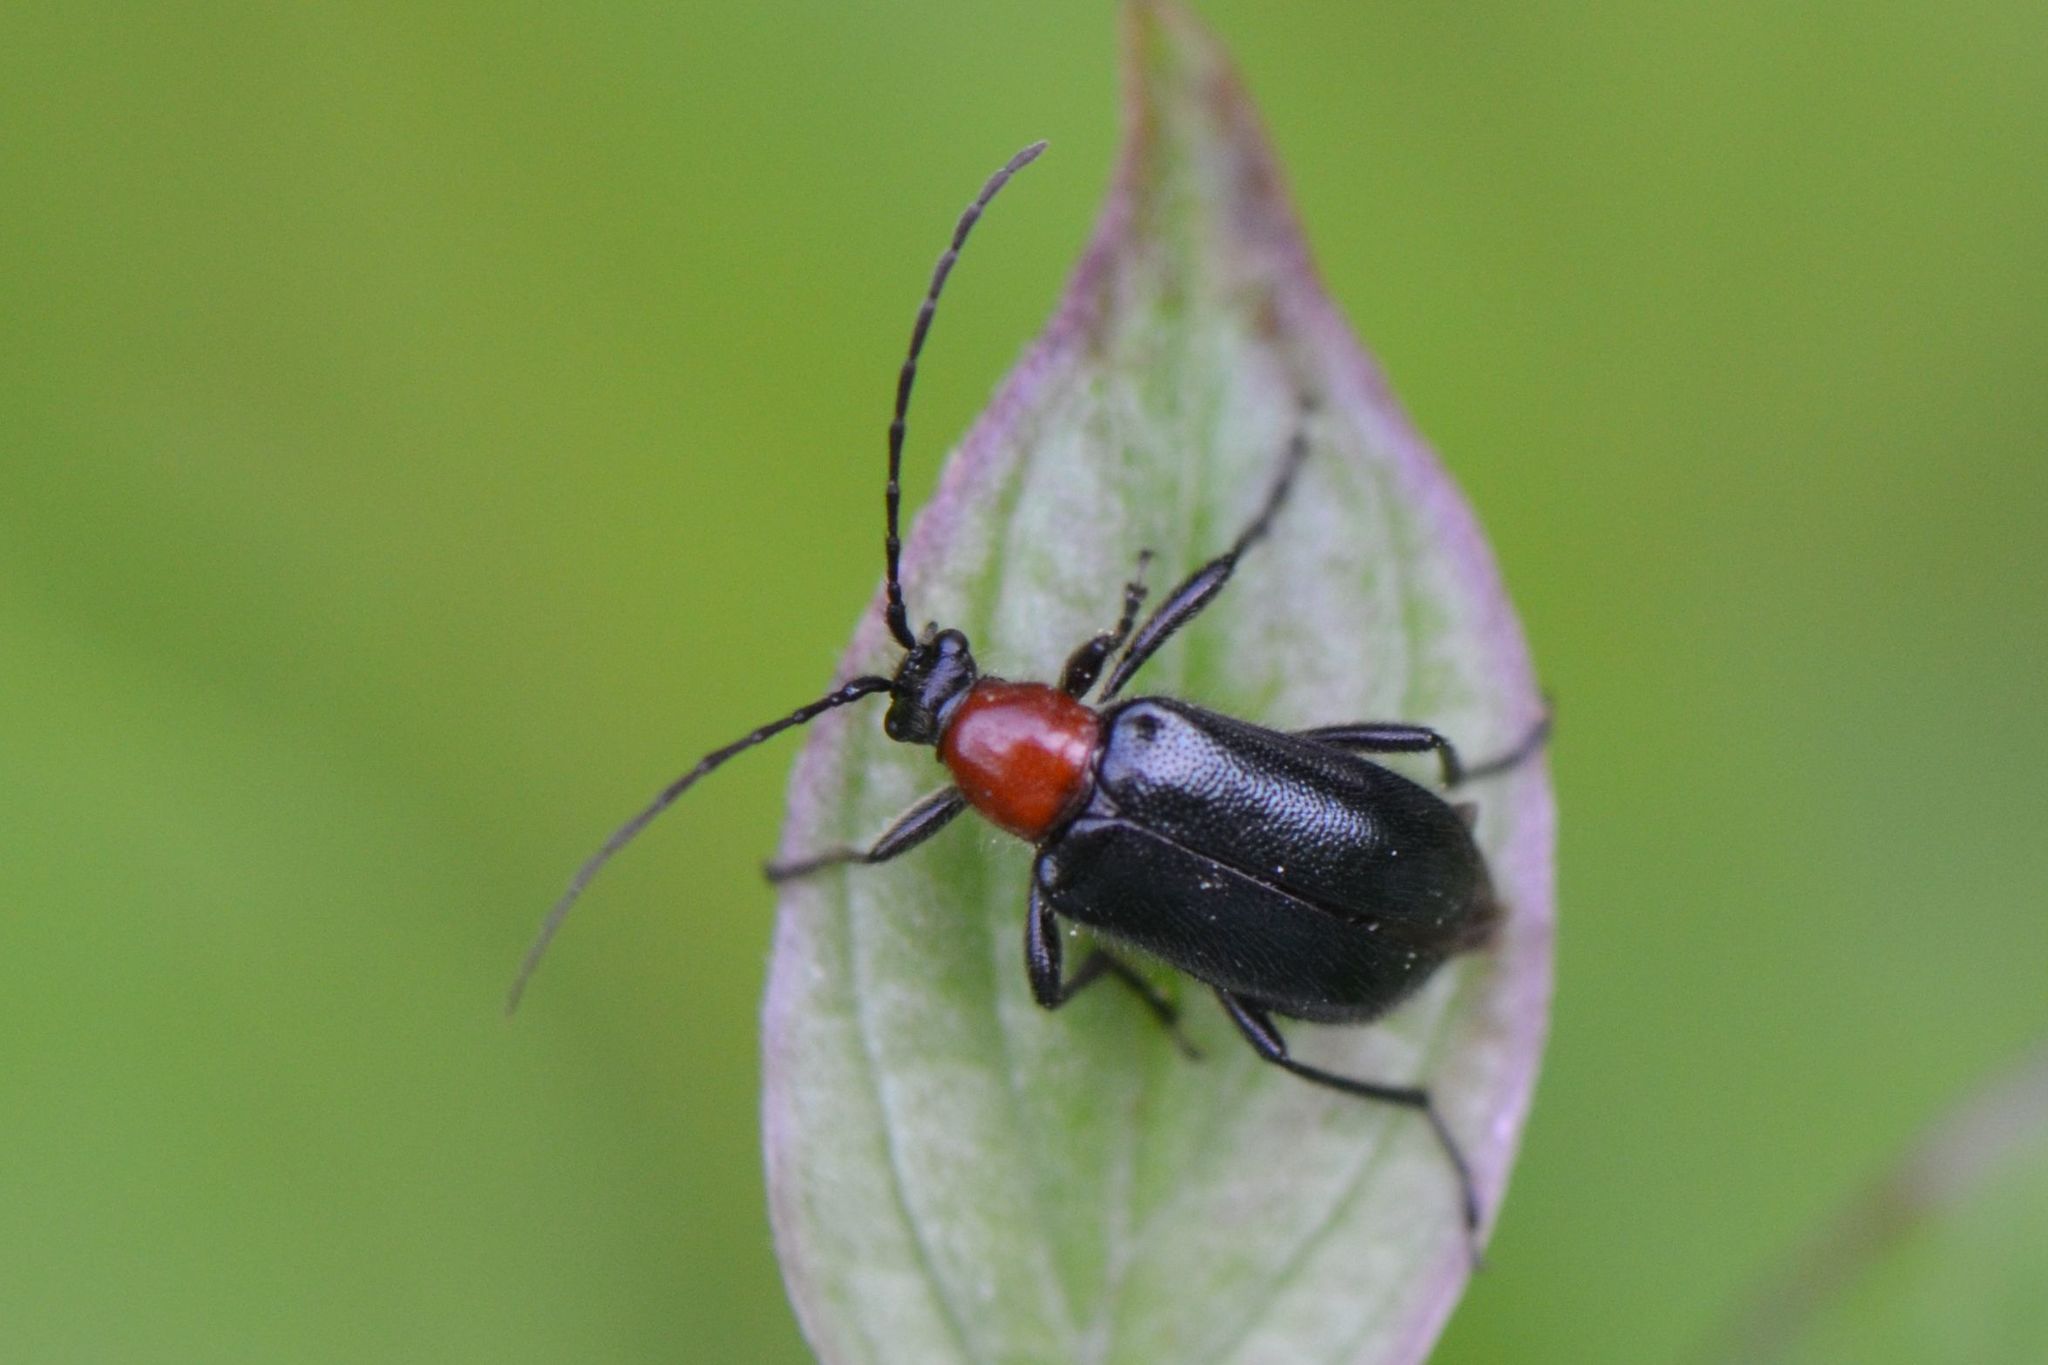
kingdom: Animalia
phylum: Arthropoda
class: Insecta
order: Coleoptera
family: Cerambycidae
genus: Dinoptera
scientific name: Dinoptera collaris
